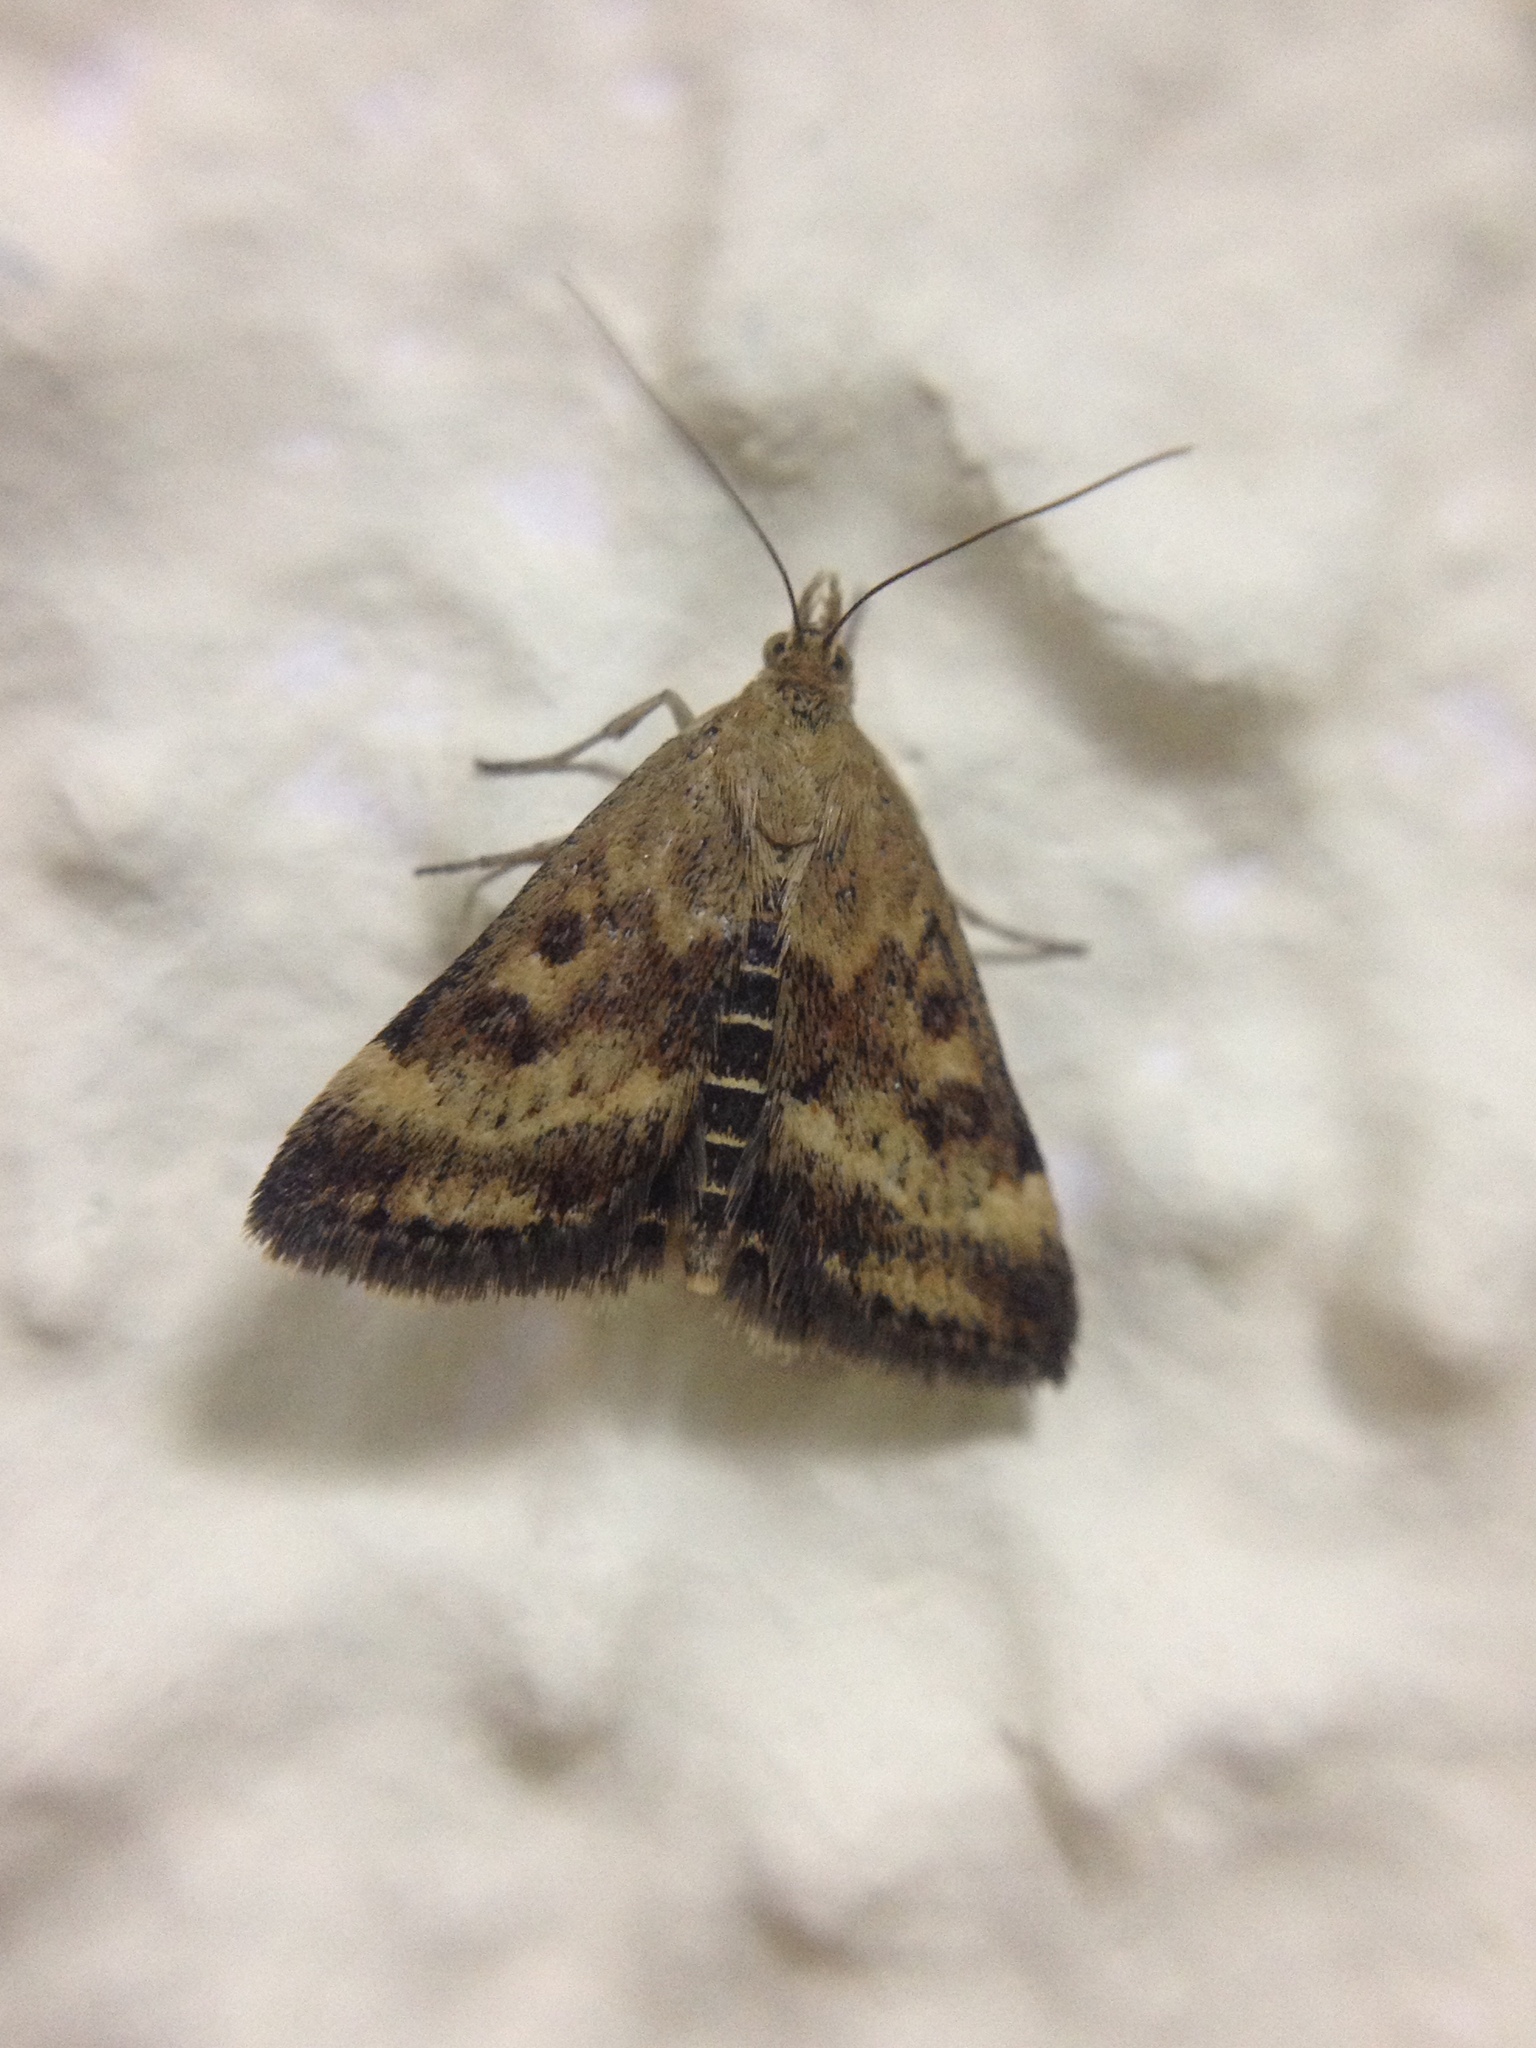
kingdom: Animalia
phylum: Arthropoda
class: Insecta
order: Lepidoptera
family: Crambidae
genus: Pyrausta
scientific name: Pyrausta despicata
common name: Straw-barred pearl
